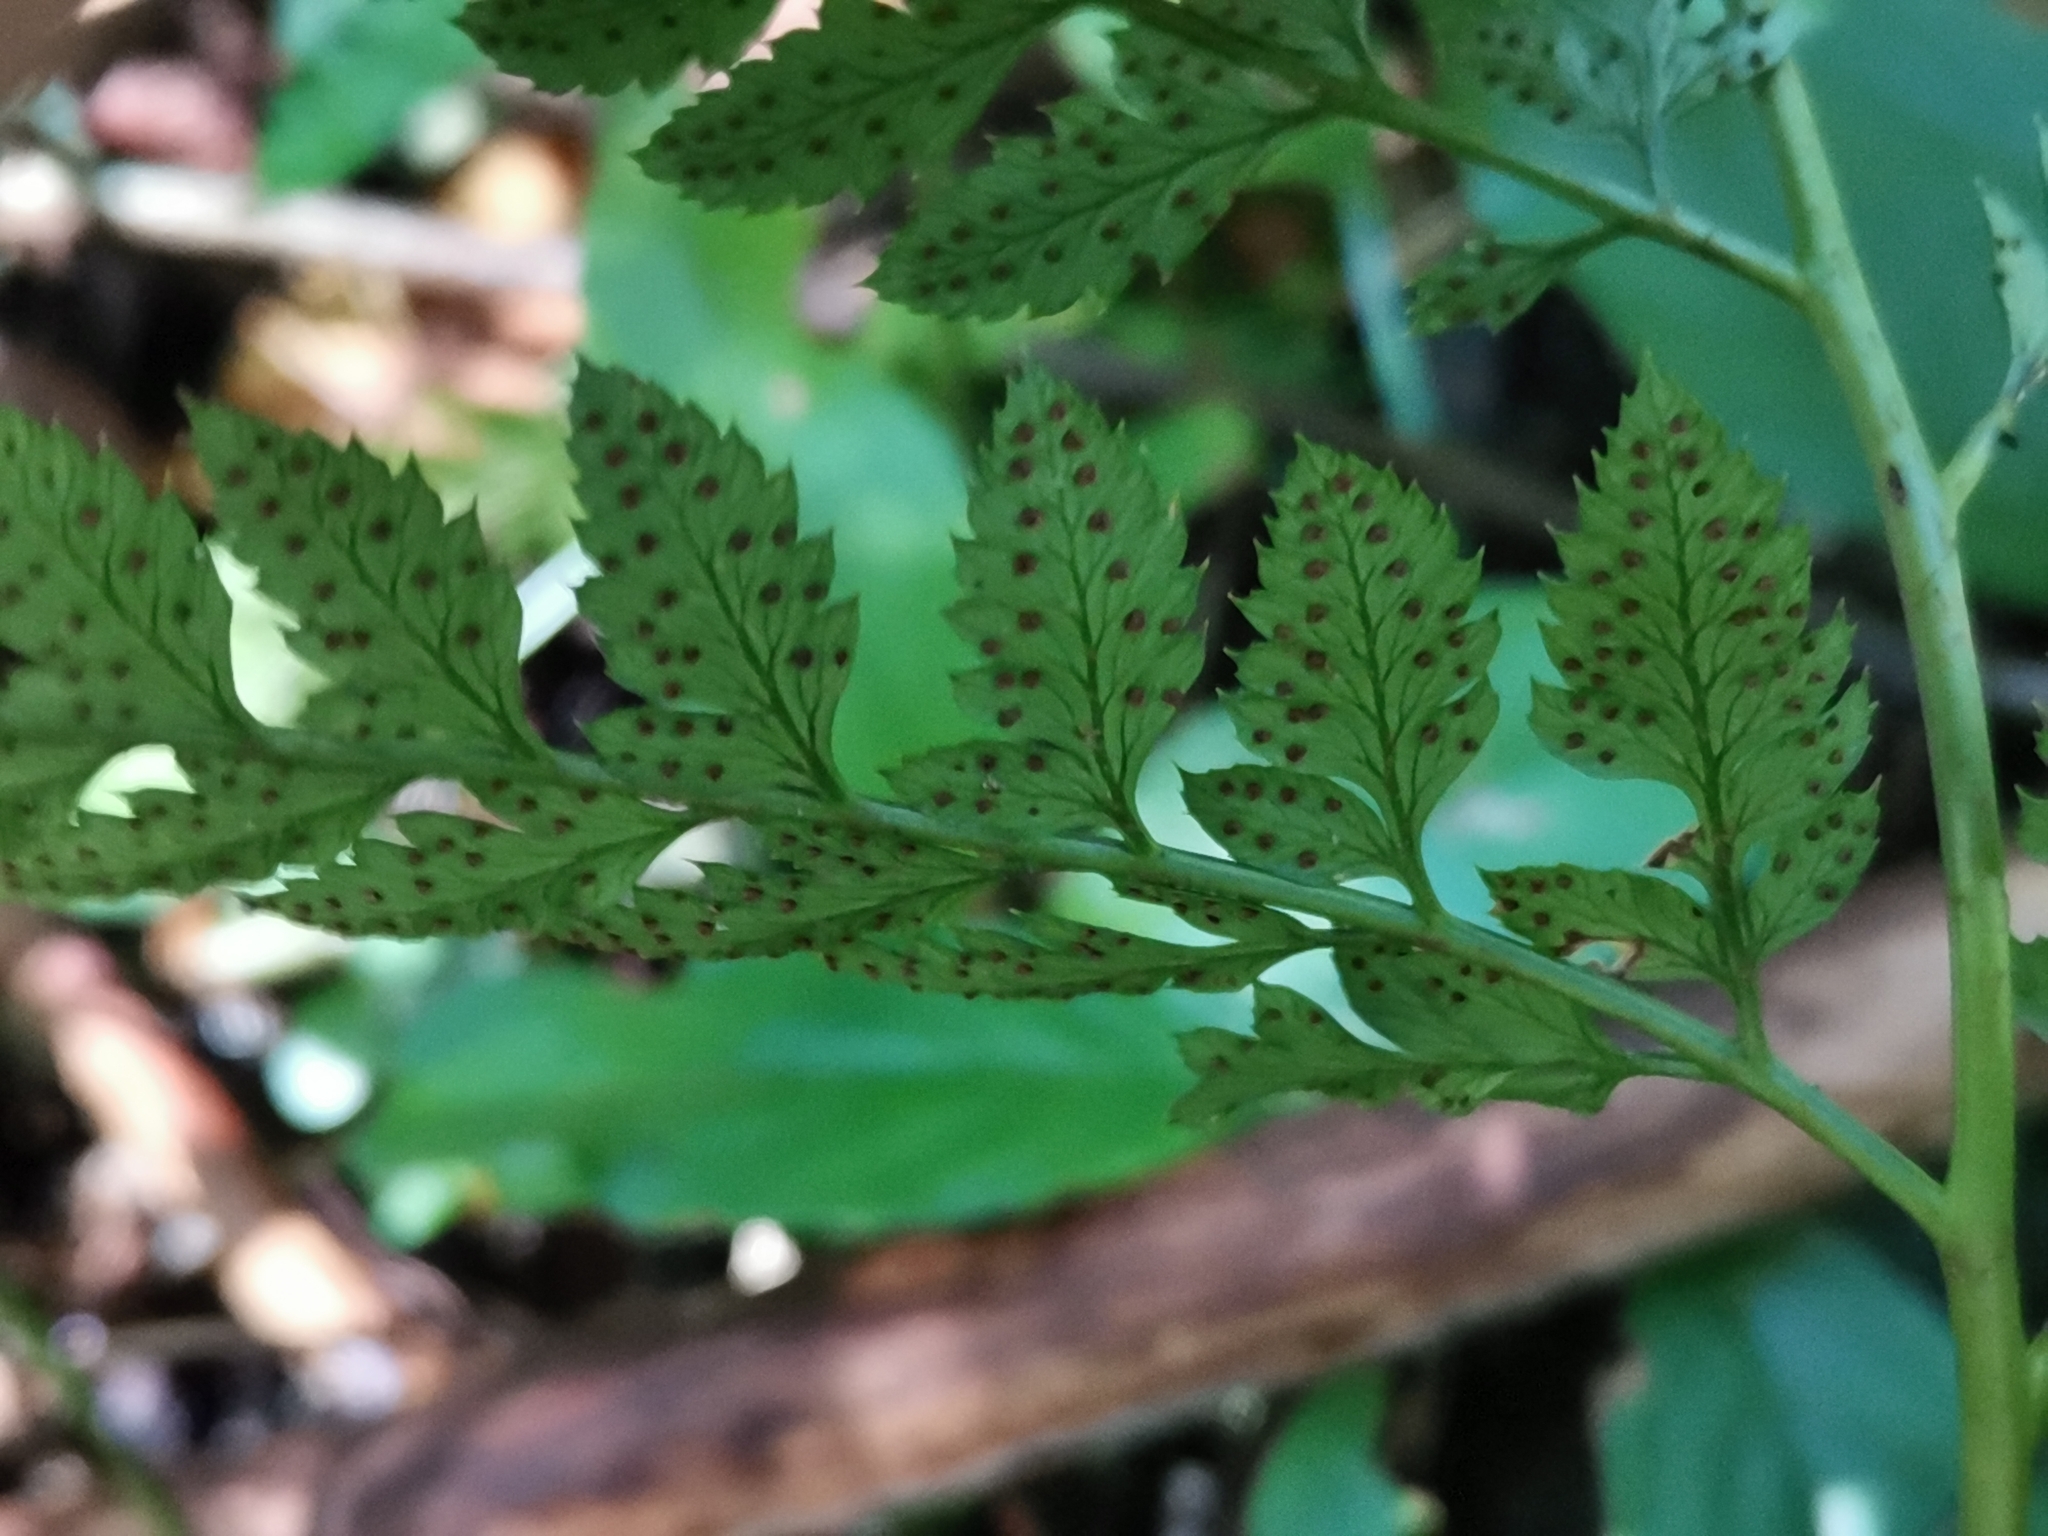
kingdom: Plantae
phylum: Tracheophyta
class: Polypodiopsida
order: Polypodiales
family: Dryopteridaceae
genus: Arachniodes
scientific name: Arachniodes cornu-cervi
